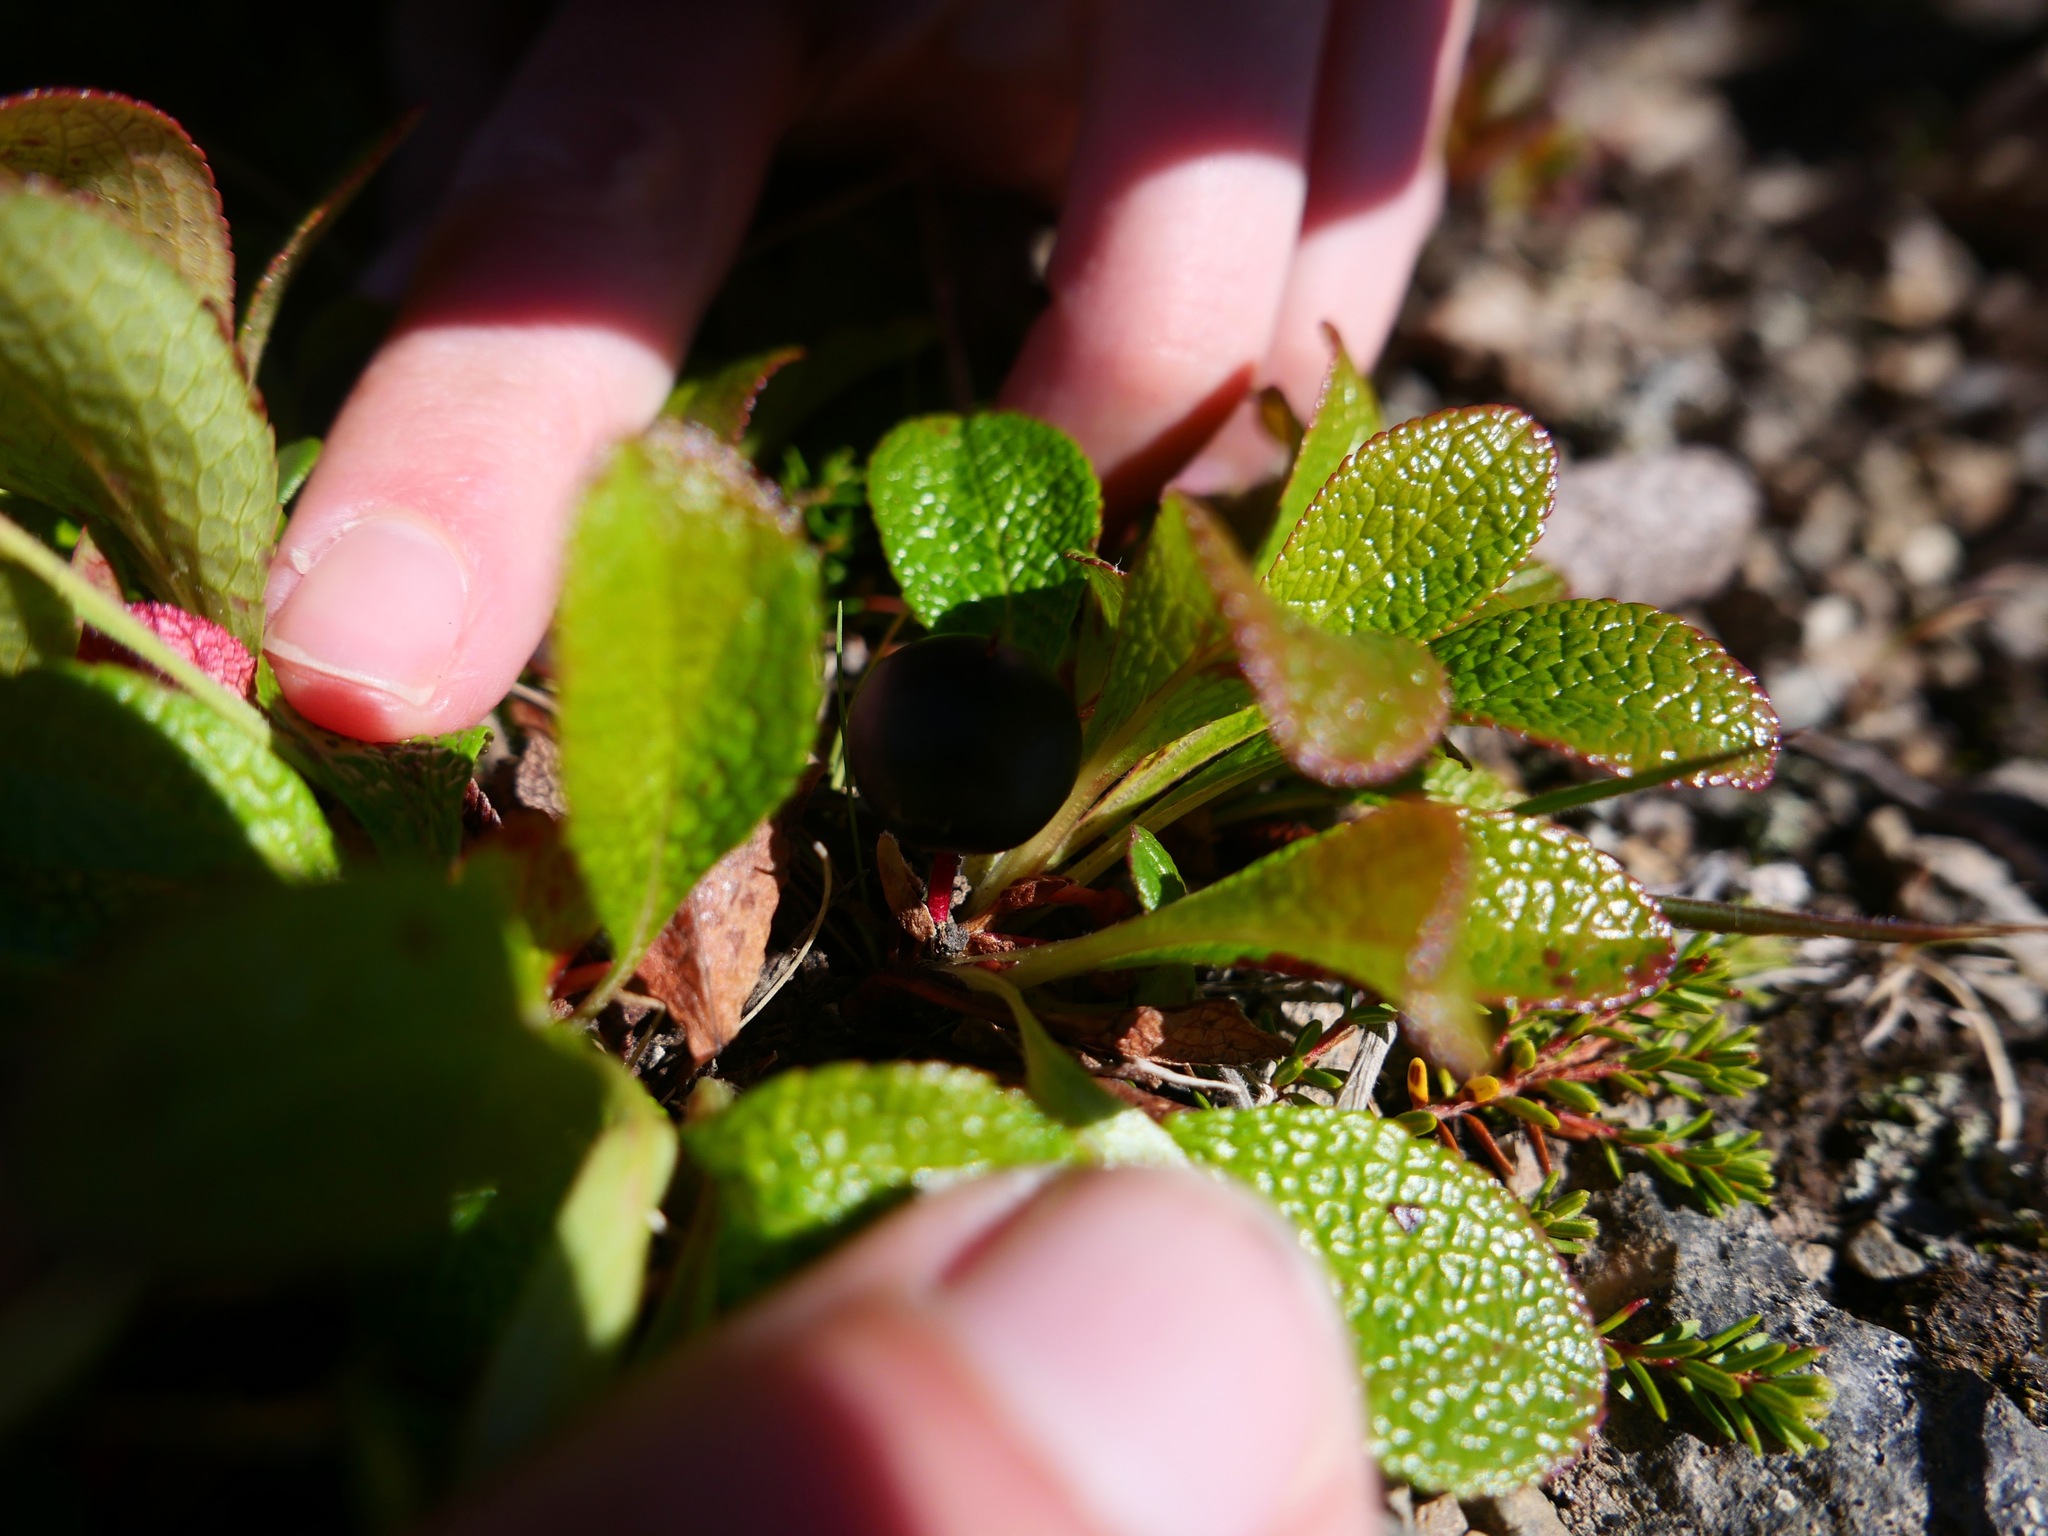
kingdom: Plantae
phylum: Tracheophyta
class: Magnoliopsida
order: Ericales
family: Ericaceae
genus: Arctostaphylos
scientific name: Arctostaphylos alpinus
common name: Alpine bearberry
